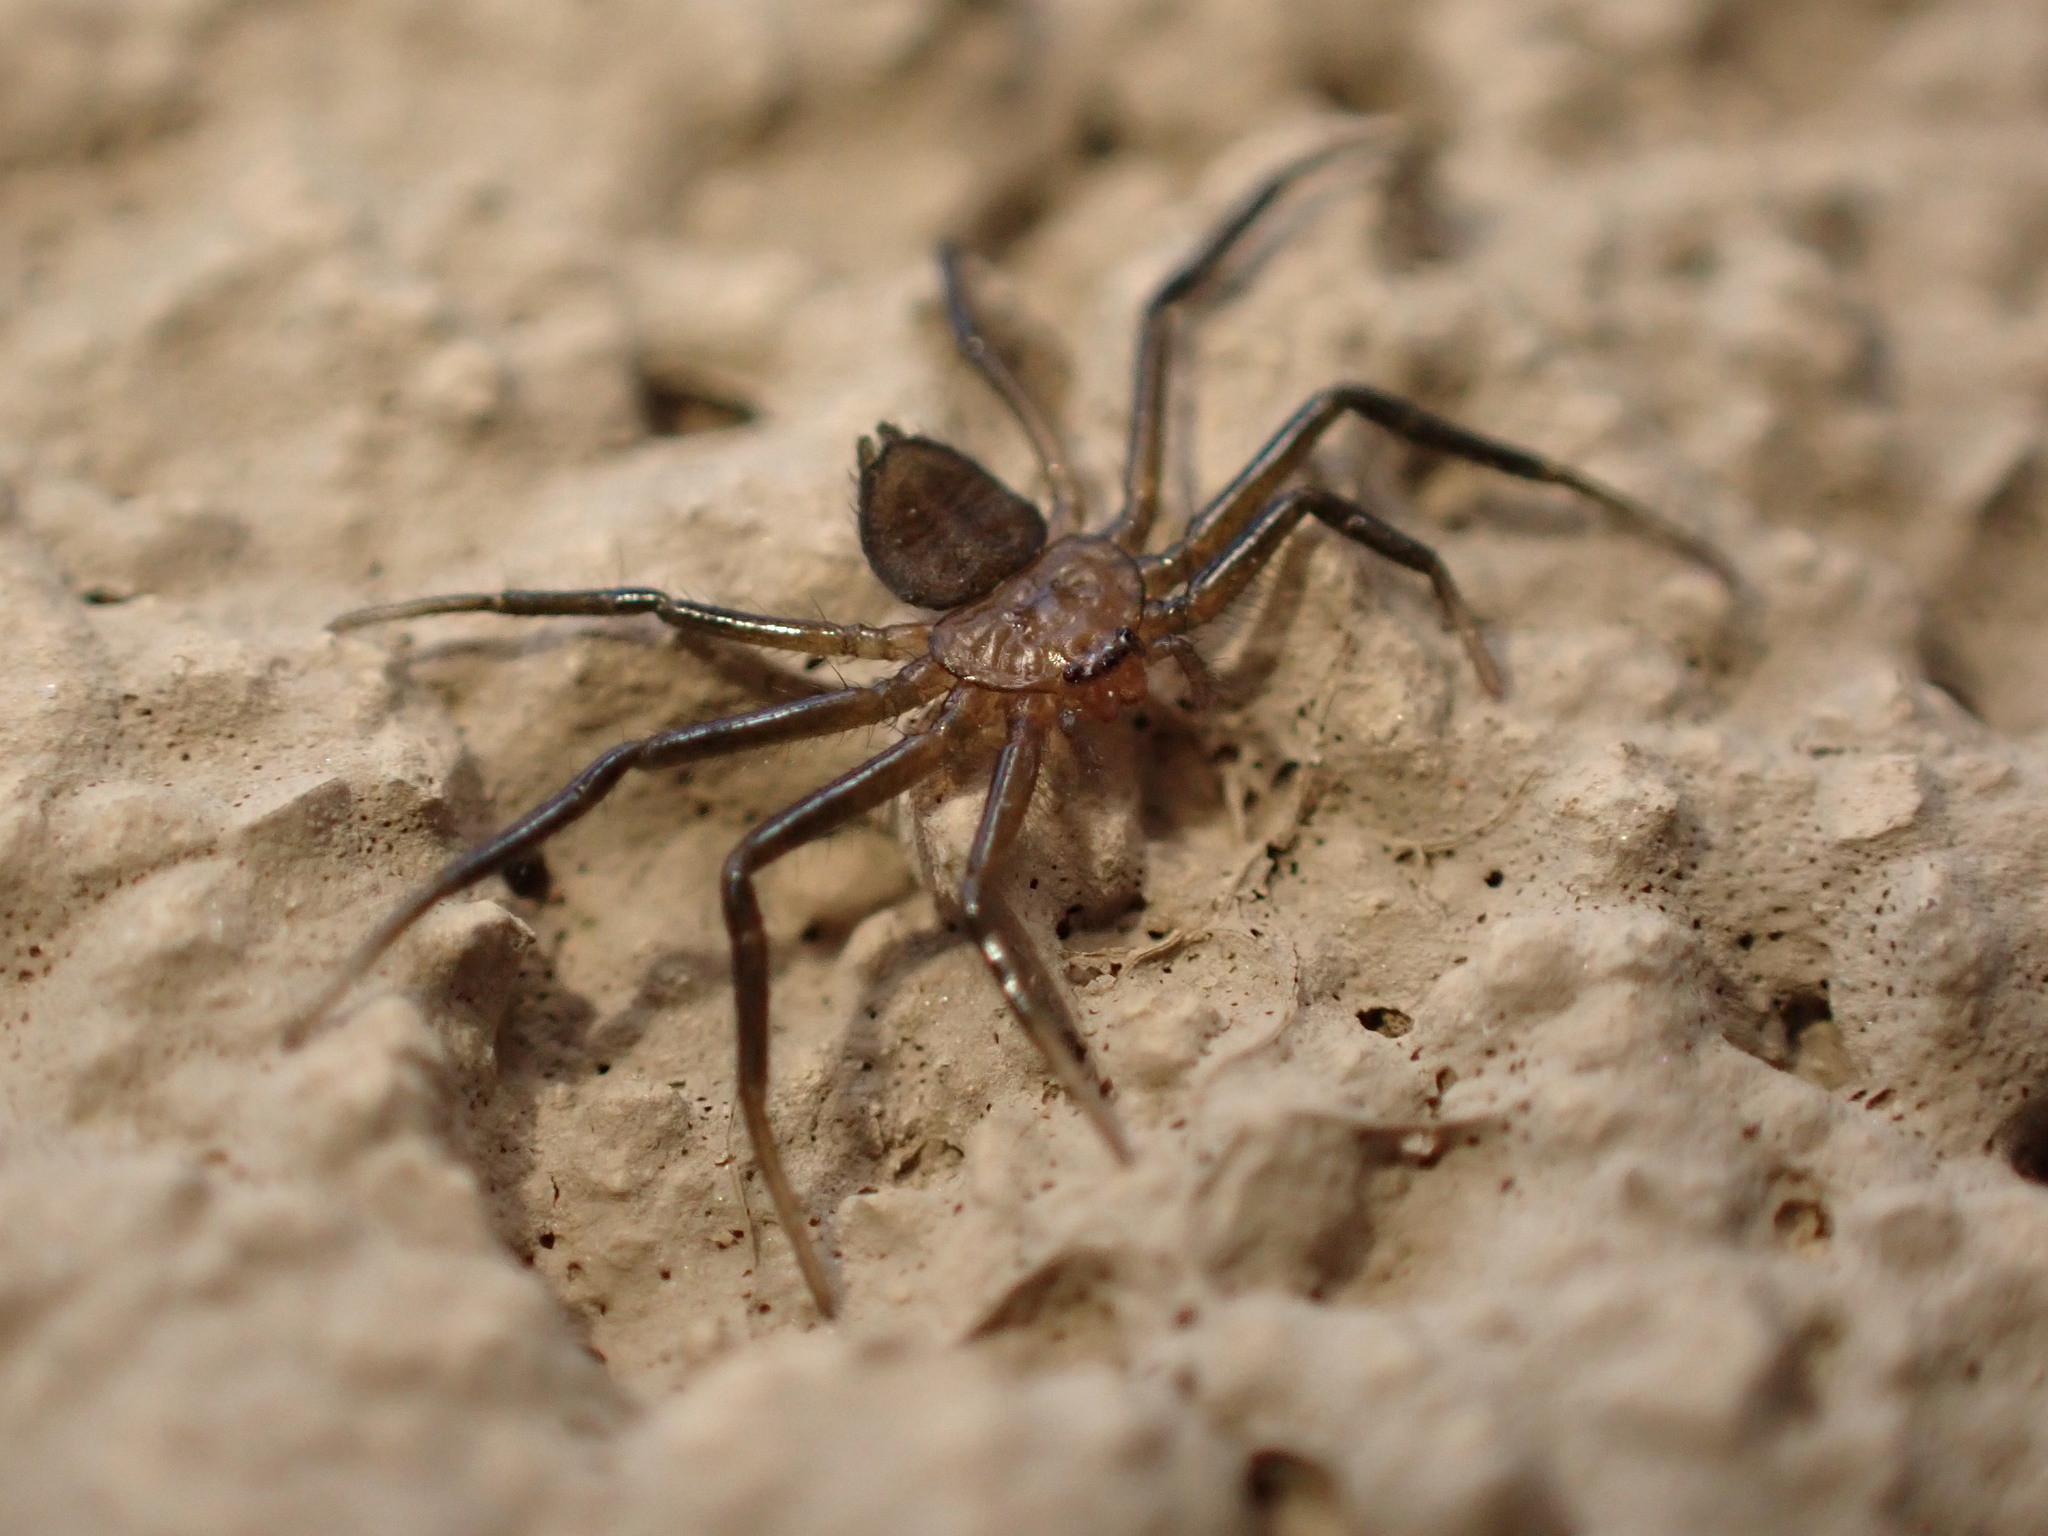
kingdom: Animalia
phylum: Arthropoda
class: Arachnida
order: Araneae
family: Trochanteriidae
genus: Vectius
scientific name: Vectius niger
